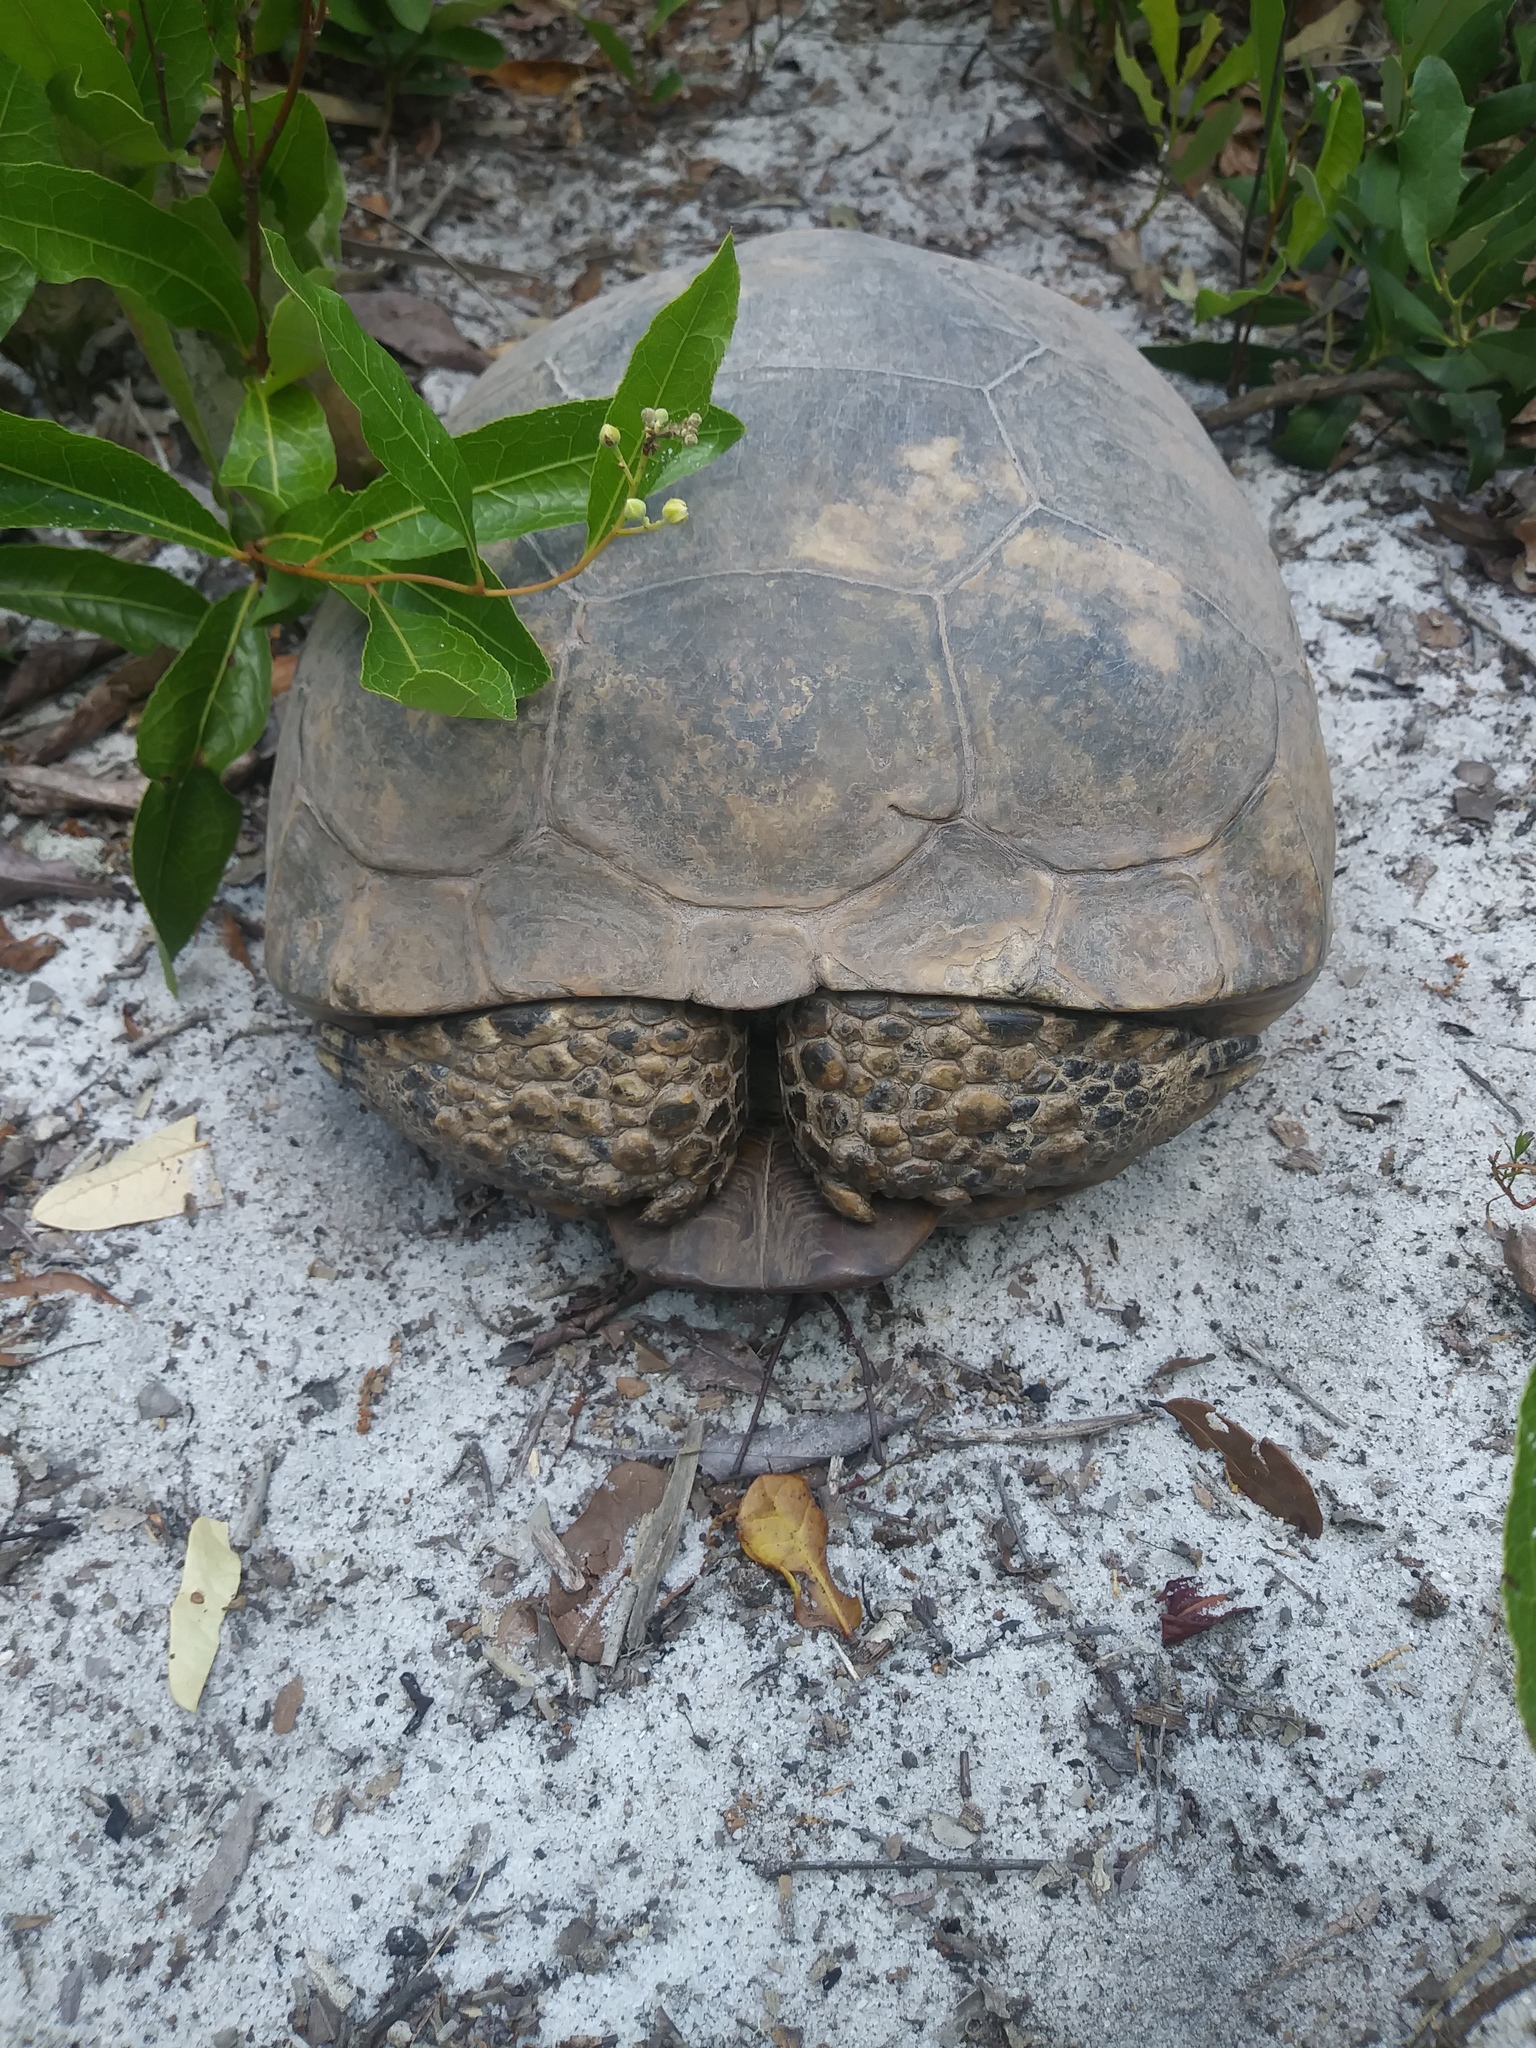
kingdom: Animalia
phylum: Chordata
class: Testudines
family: Testudinidae
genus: Gopherus
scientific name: Gopherus polyphemus
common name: Florida gopher tortoise
